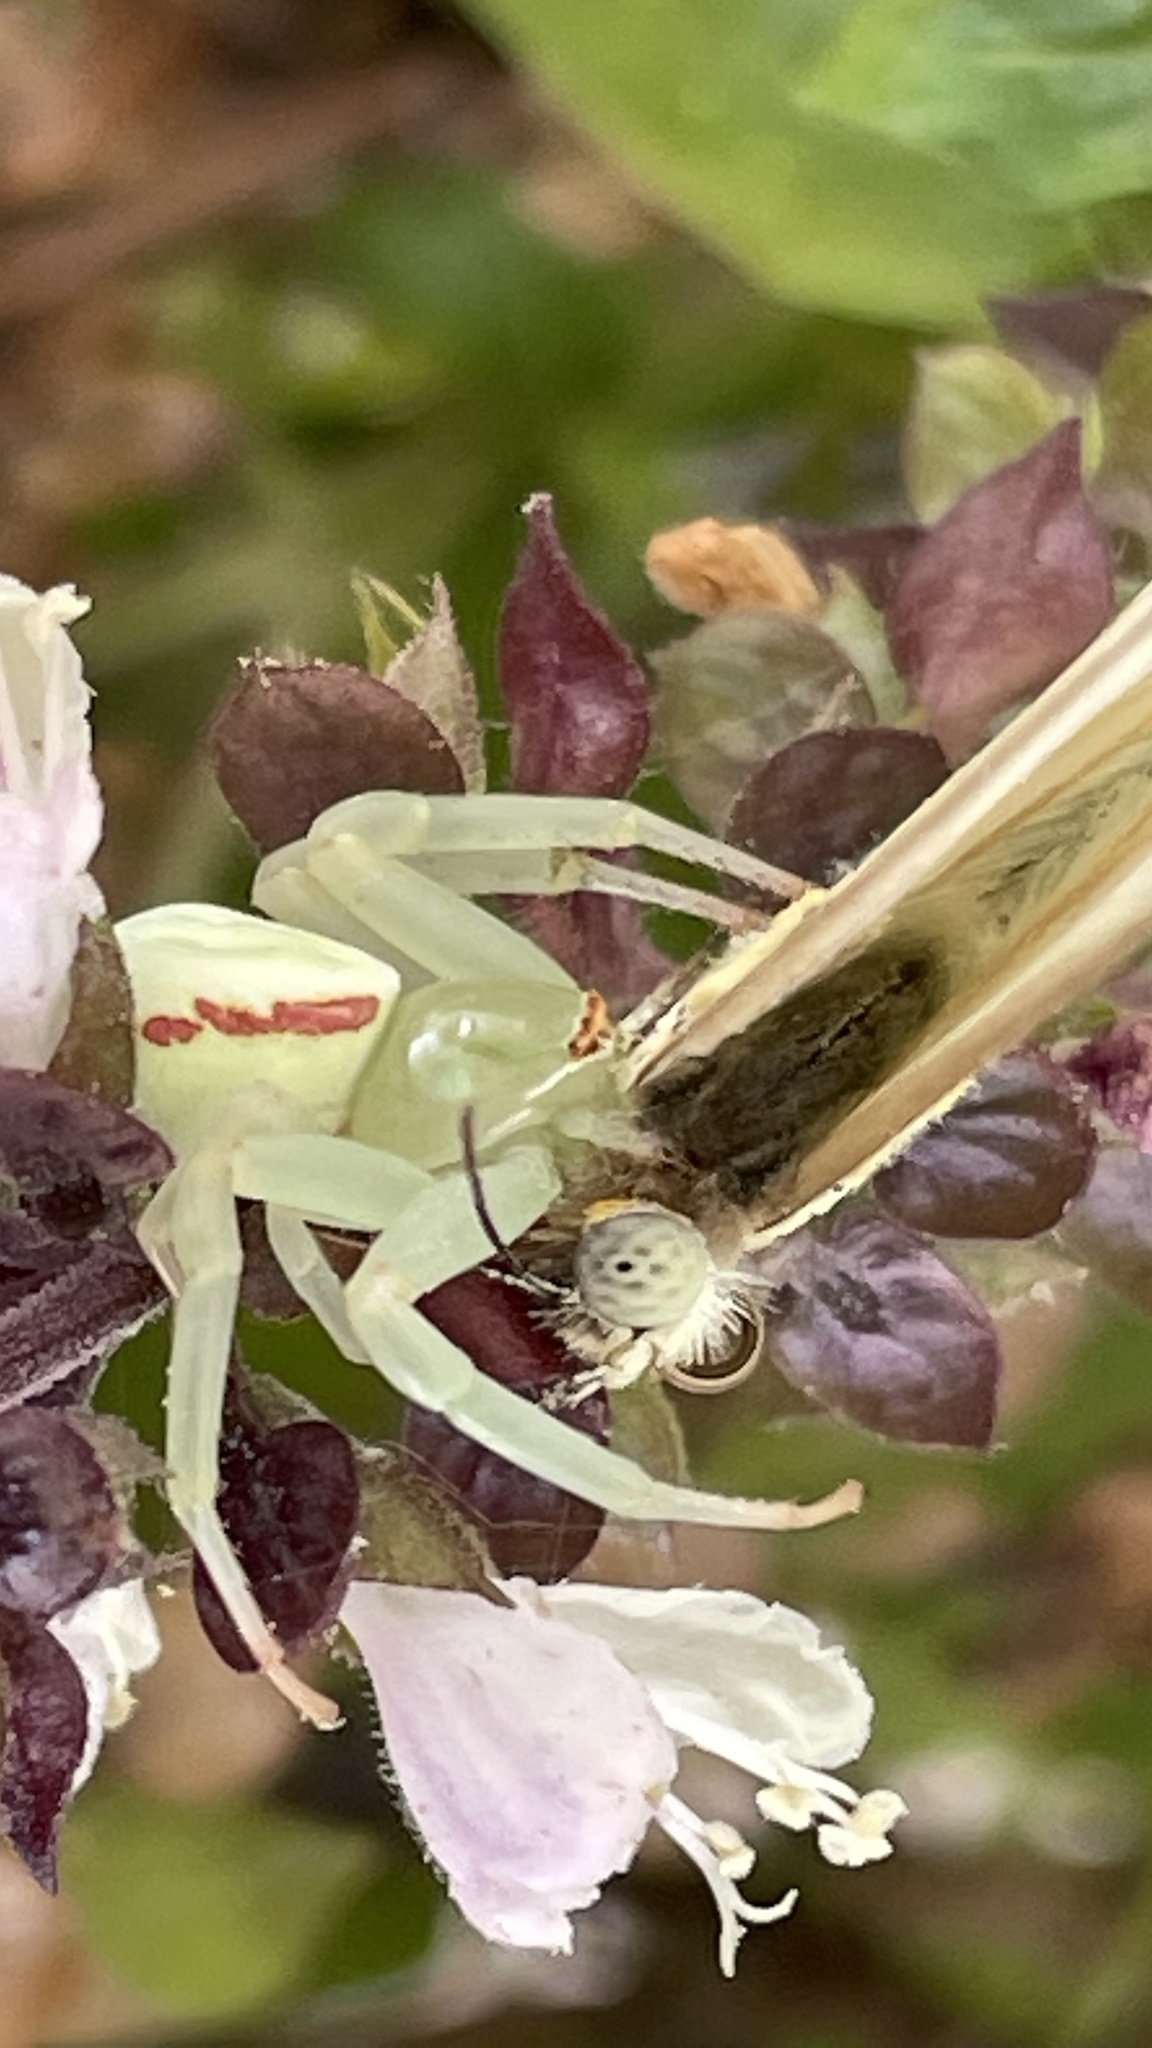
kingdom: Animalia
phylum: Arthropoda
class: Arachnida
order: Araneae
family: Thomisidae
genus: Misumena
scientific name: Misumena vatia
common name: Goldenrod crab spider
